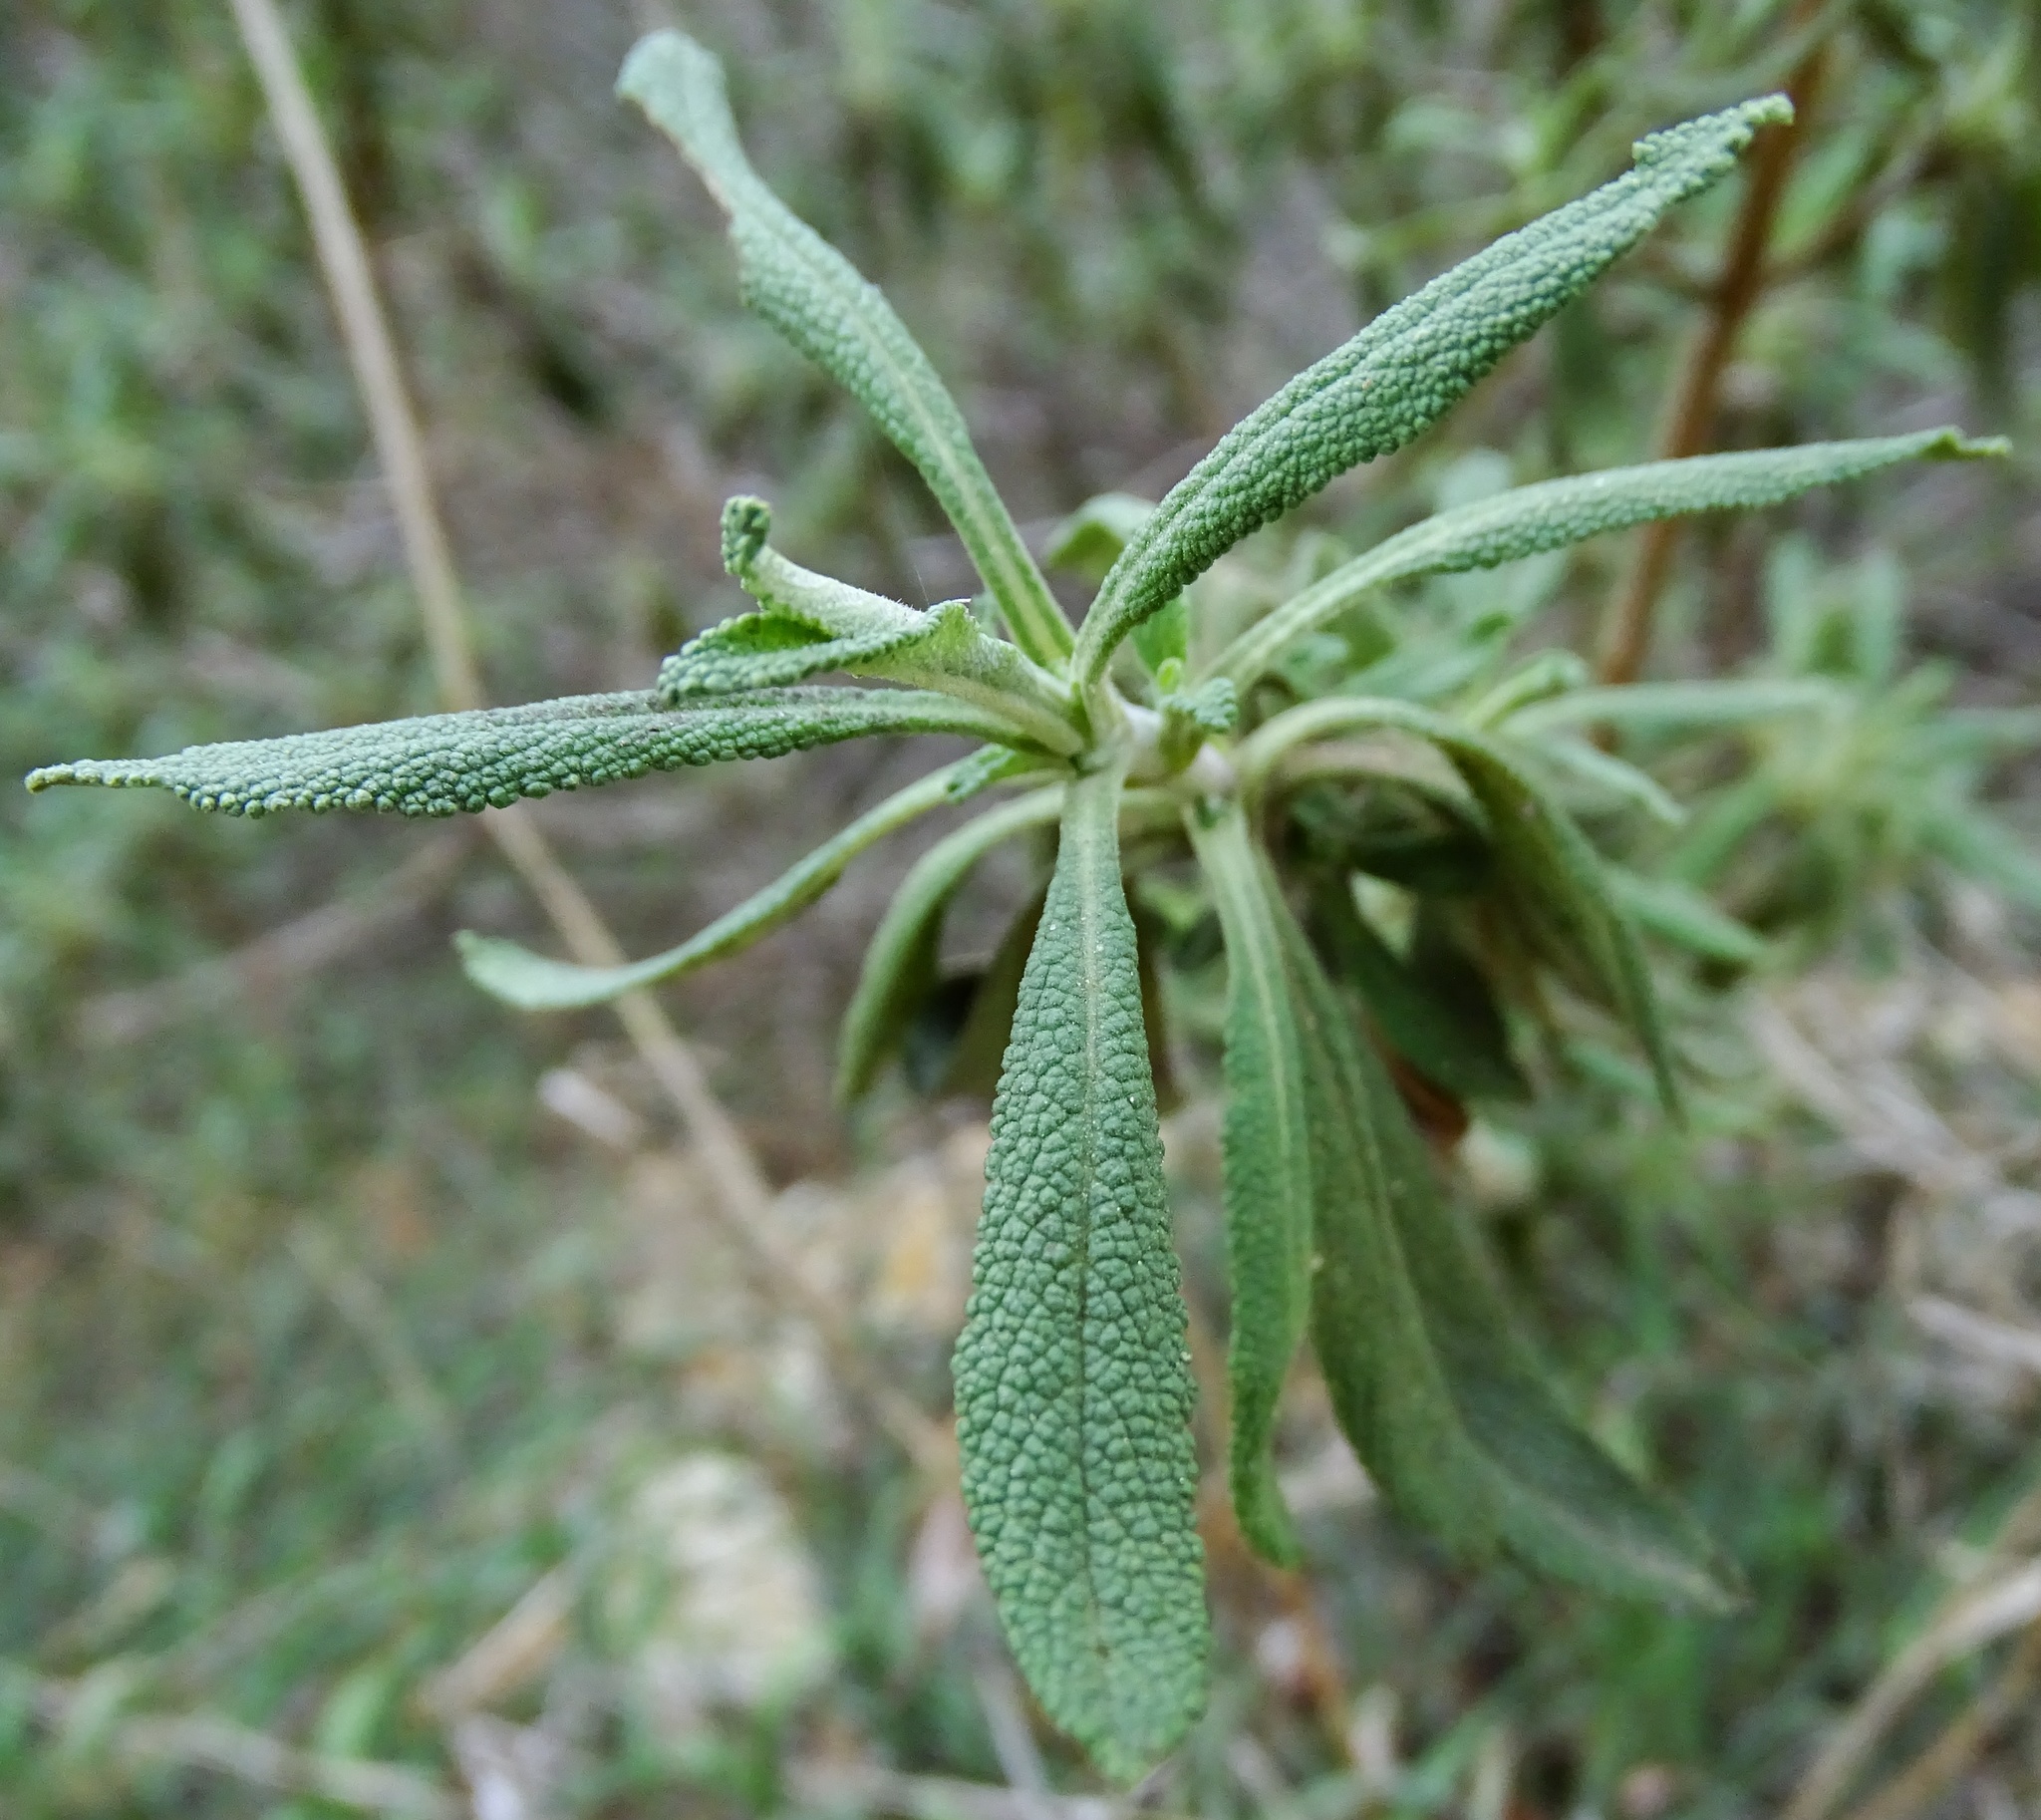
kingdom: Plantae
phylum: Tracheophyta
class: Magnoliopsida
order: Lamiales
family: Lamiaceae
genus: Salvia
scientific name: Salvia mellifera
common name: Black sage
